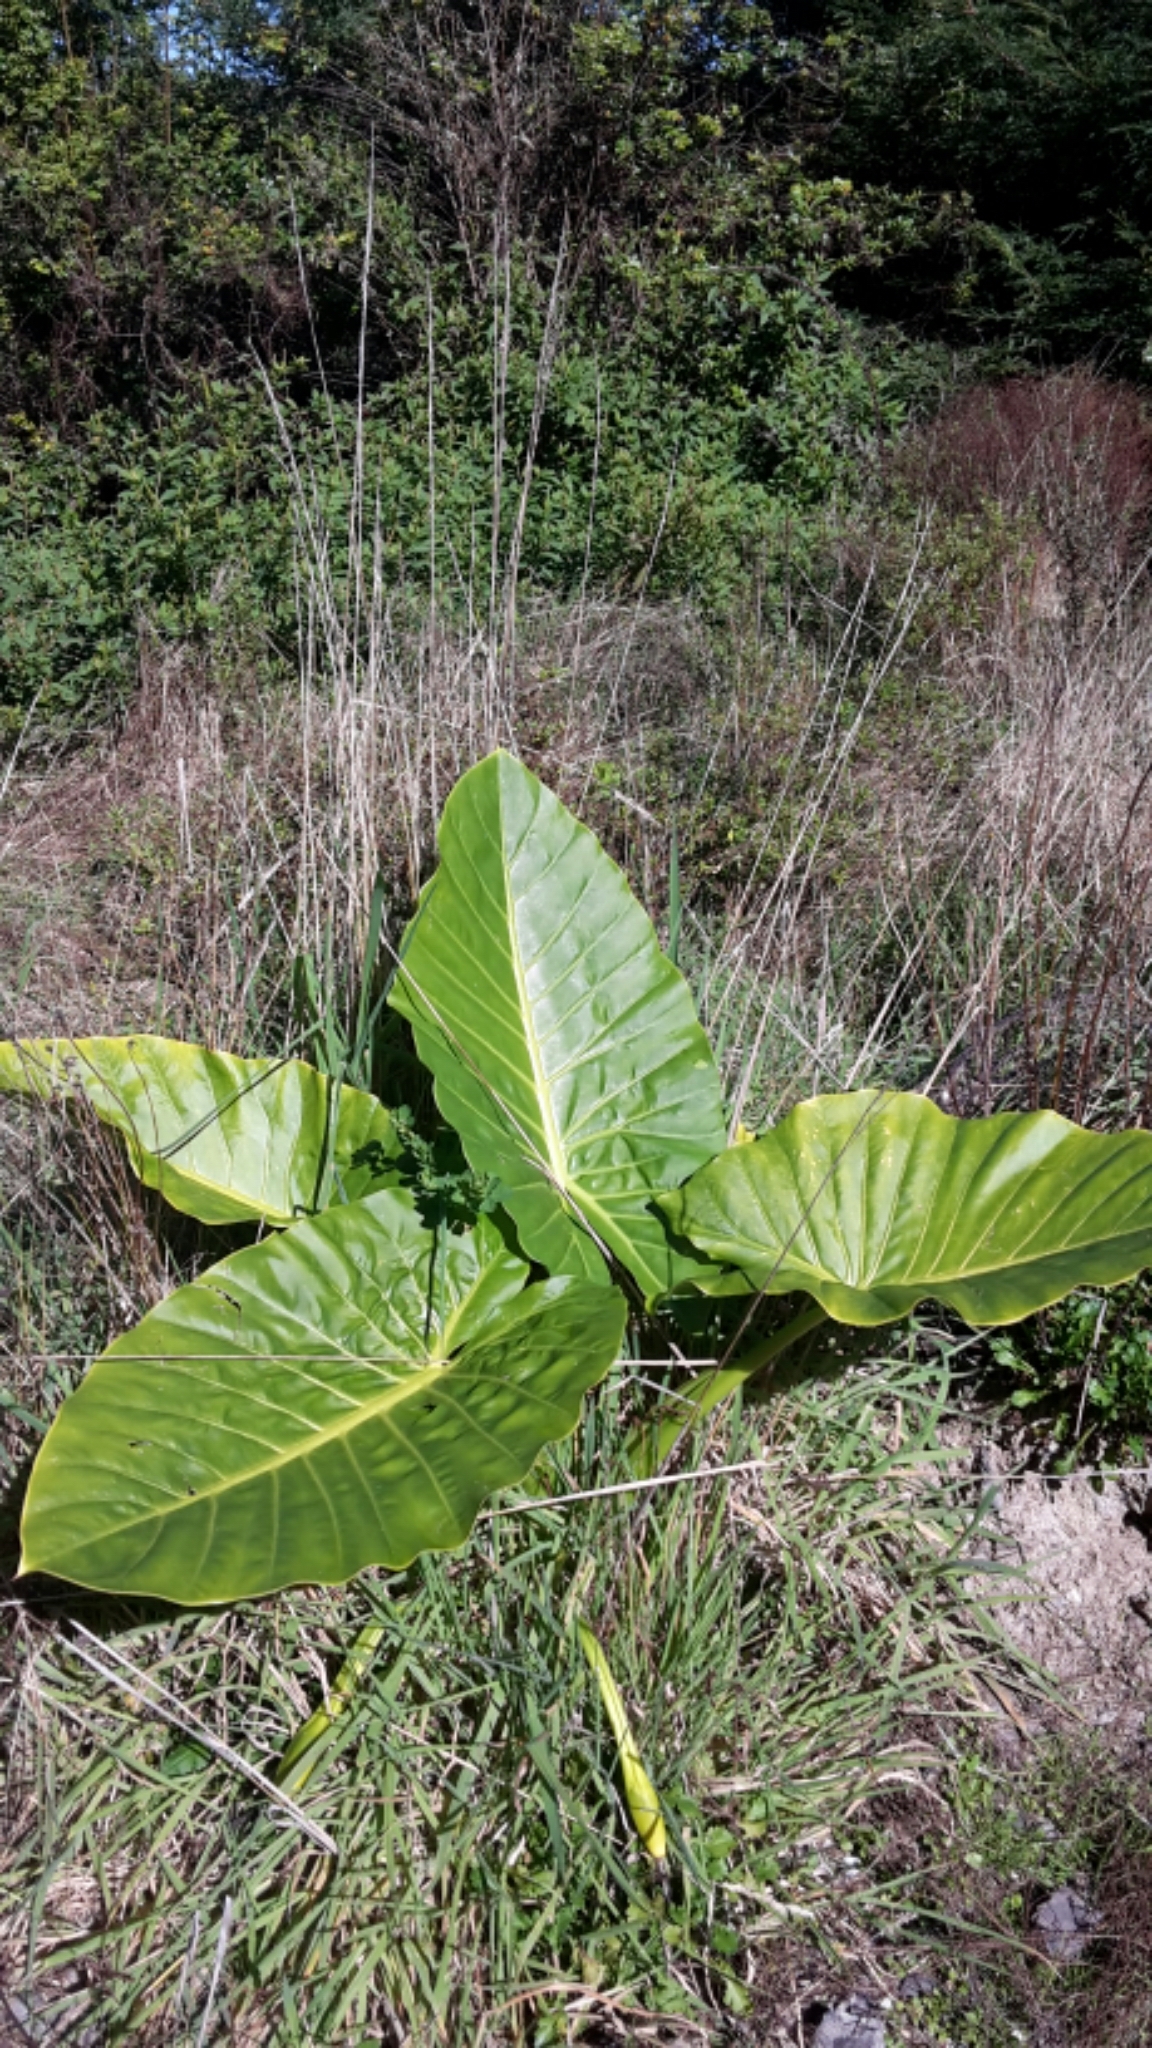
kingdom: Plantae
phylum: Tracheophyta
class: Liliopsida
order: Alismatales
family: Araceae
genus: Alocasia
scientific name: Alocasia brisbanensis
